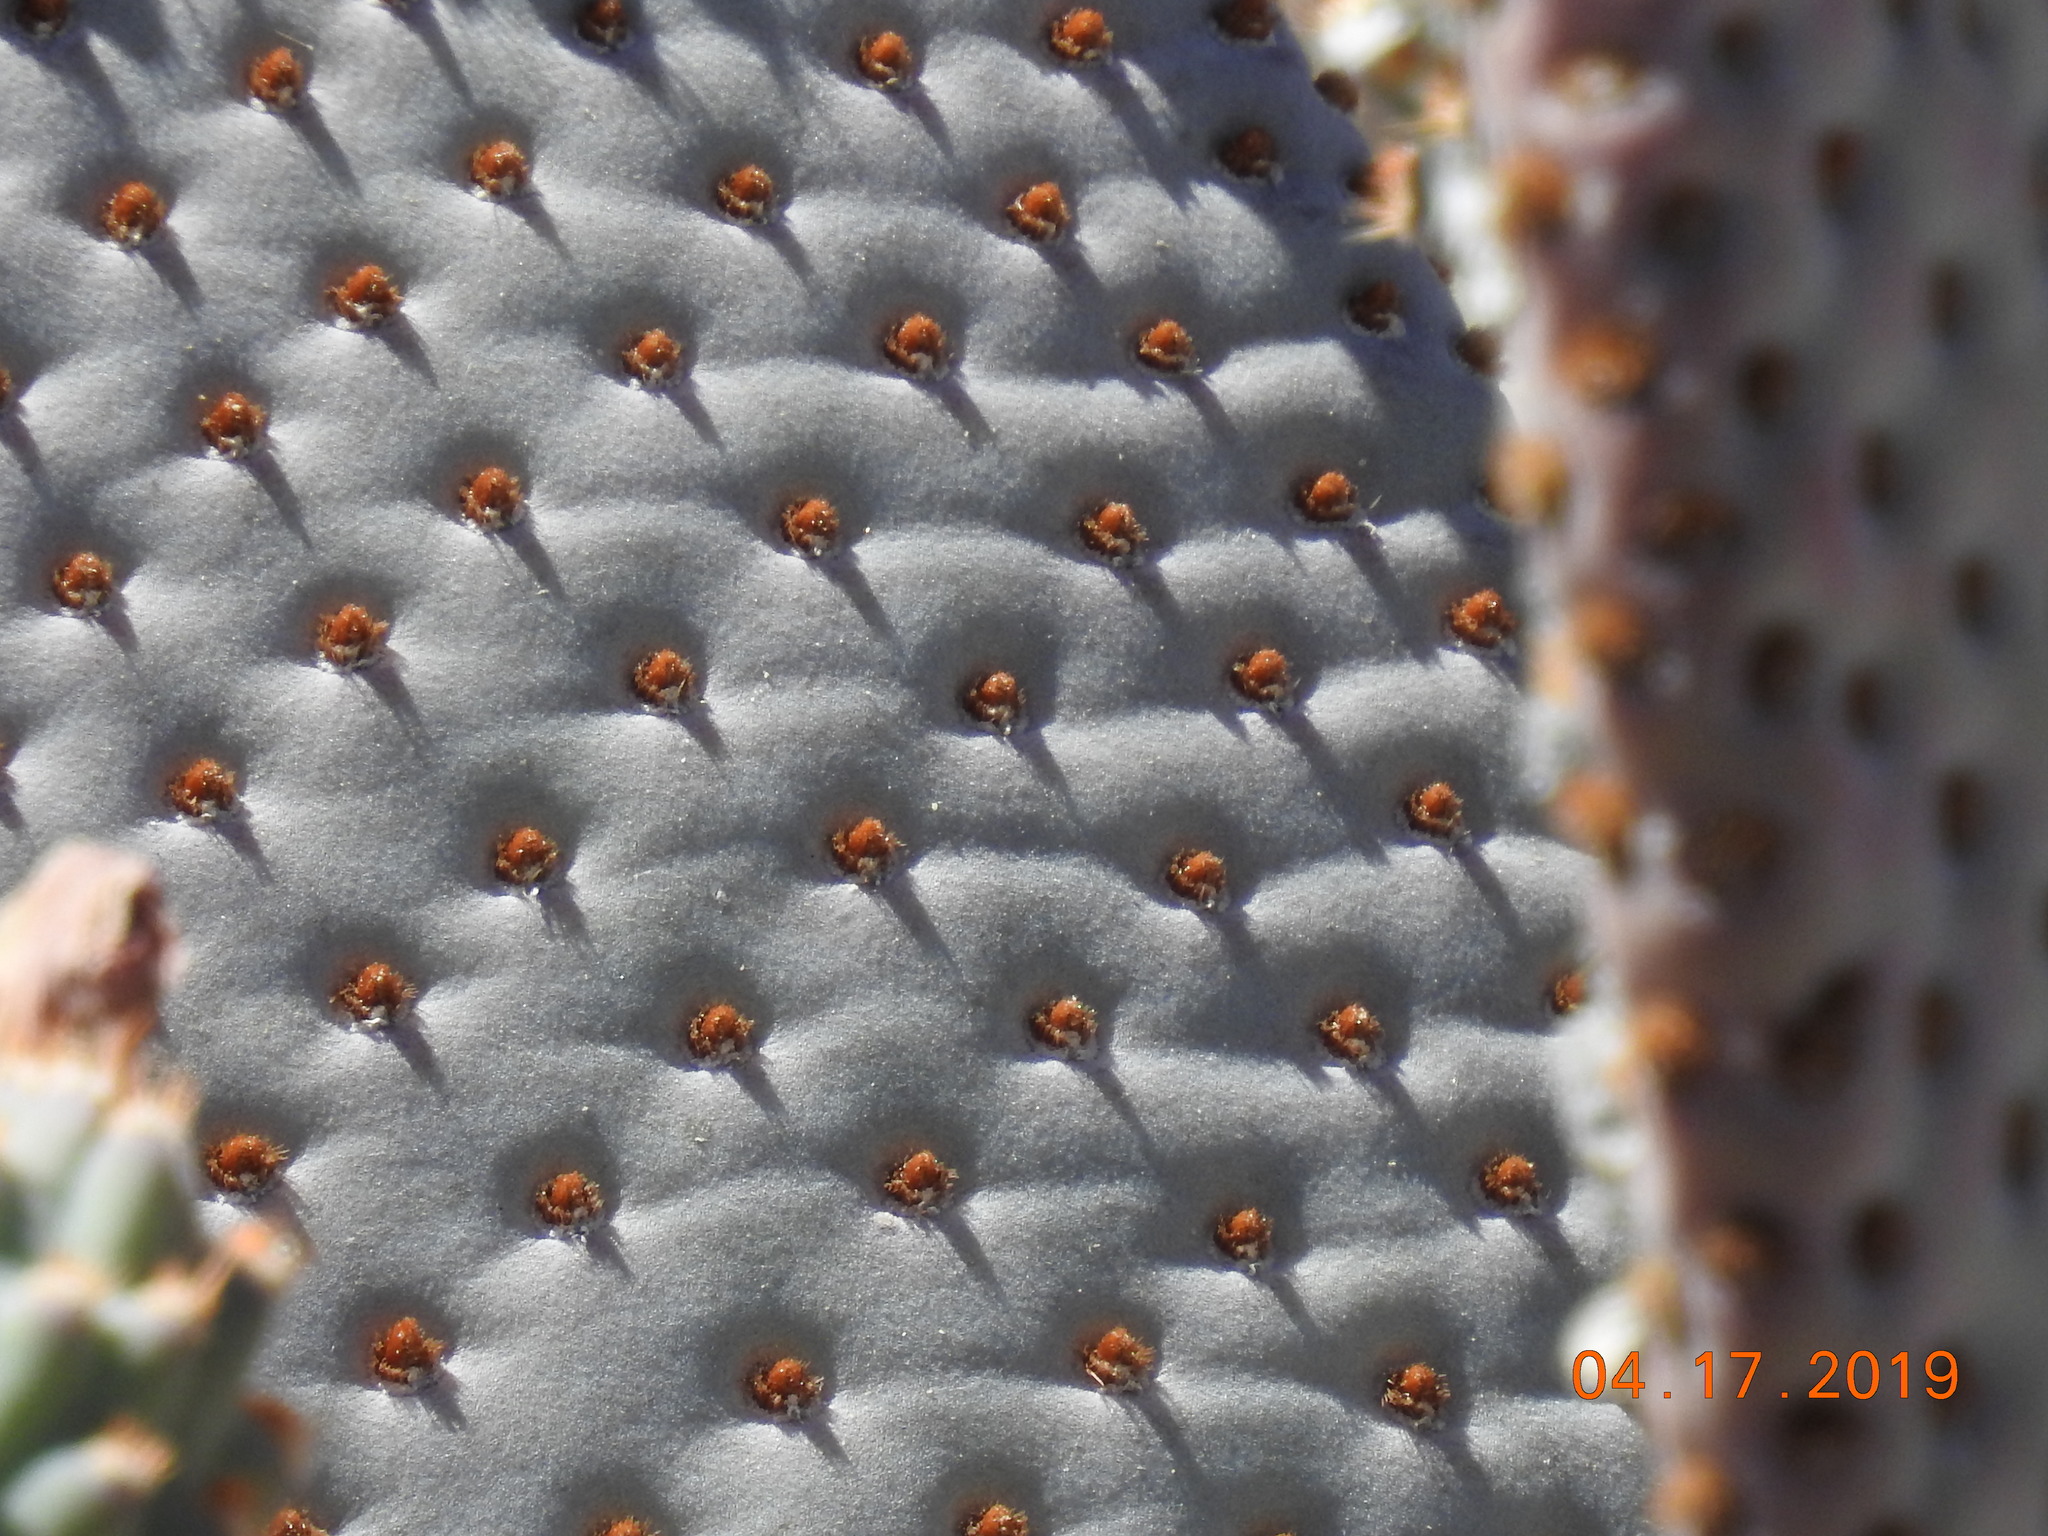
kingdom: Plantae
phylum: Tracheophyta
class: Magnoliopsida
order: Caryophyllales
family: Cactaceae
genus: Opuntia
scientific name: Opuntia basilaris
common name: Beavertail prickly-pear
